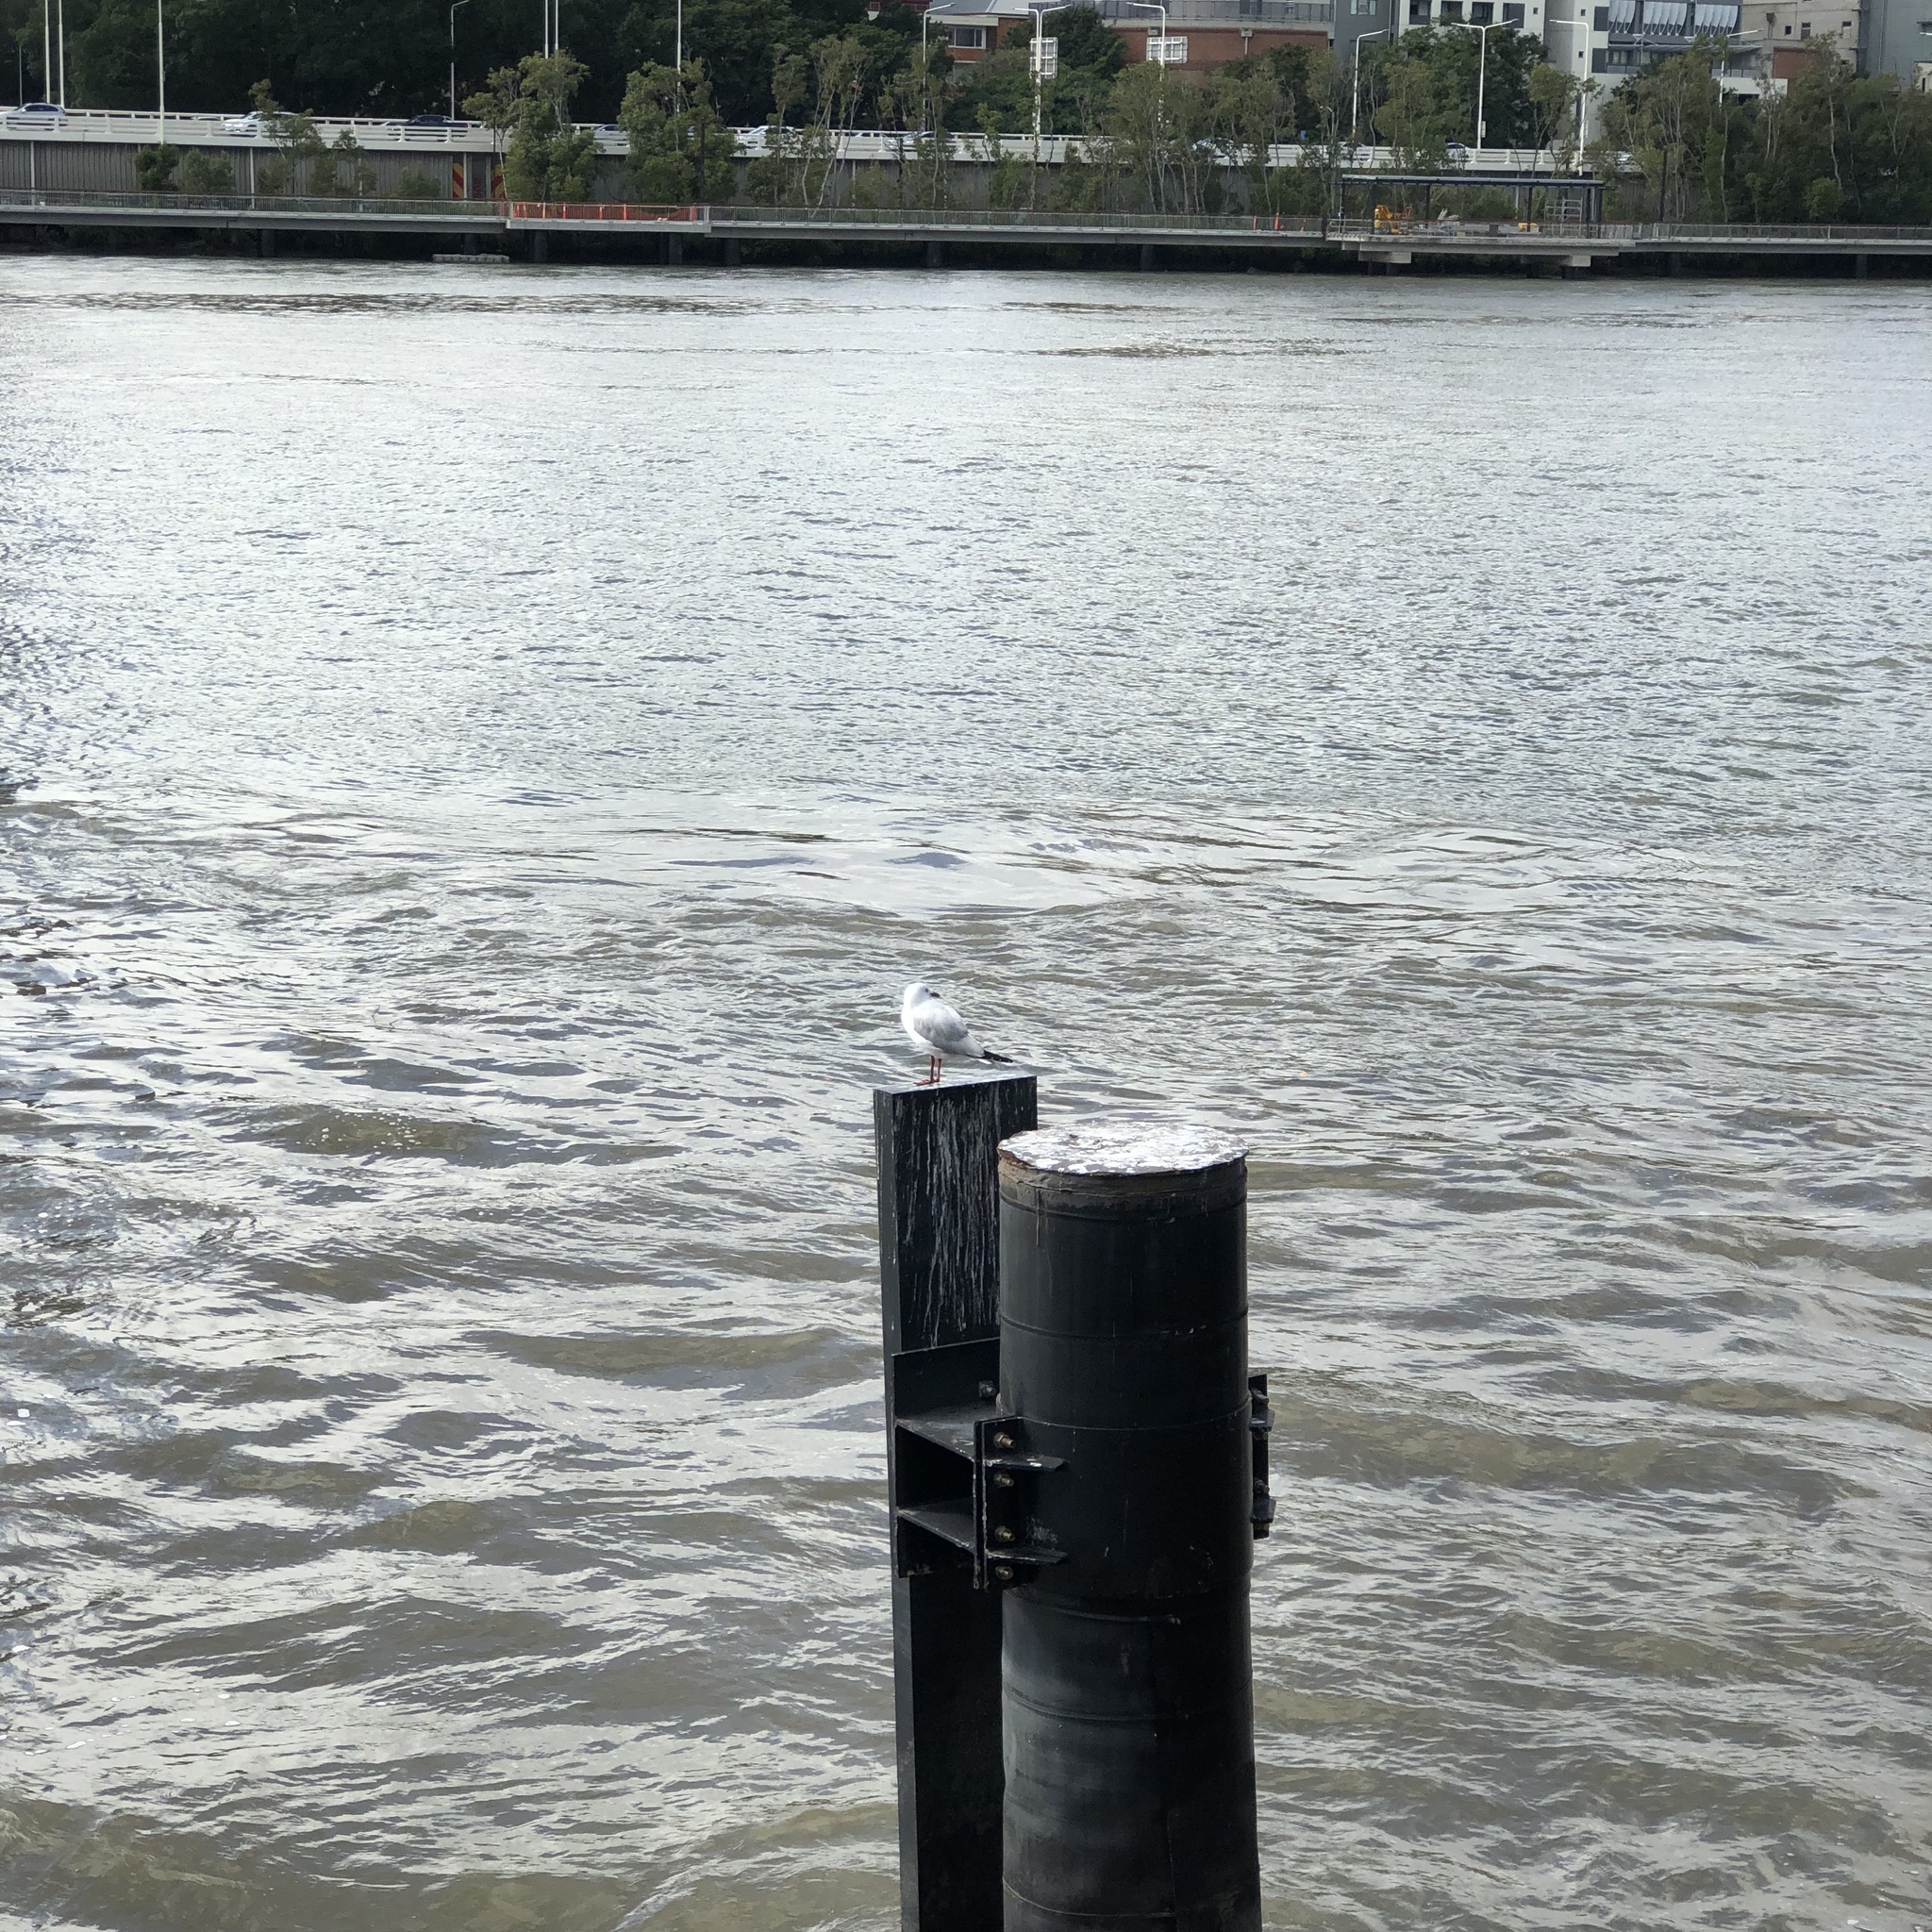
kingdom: Animalia
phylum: Chordata
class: Aves
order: Charadriiformes
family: Laridae
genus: Chroicocephalus
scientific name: Chroicocephalus novaehollandiae
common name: Silver gull
